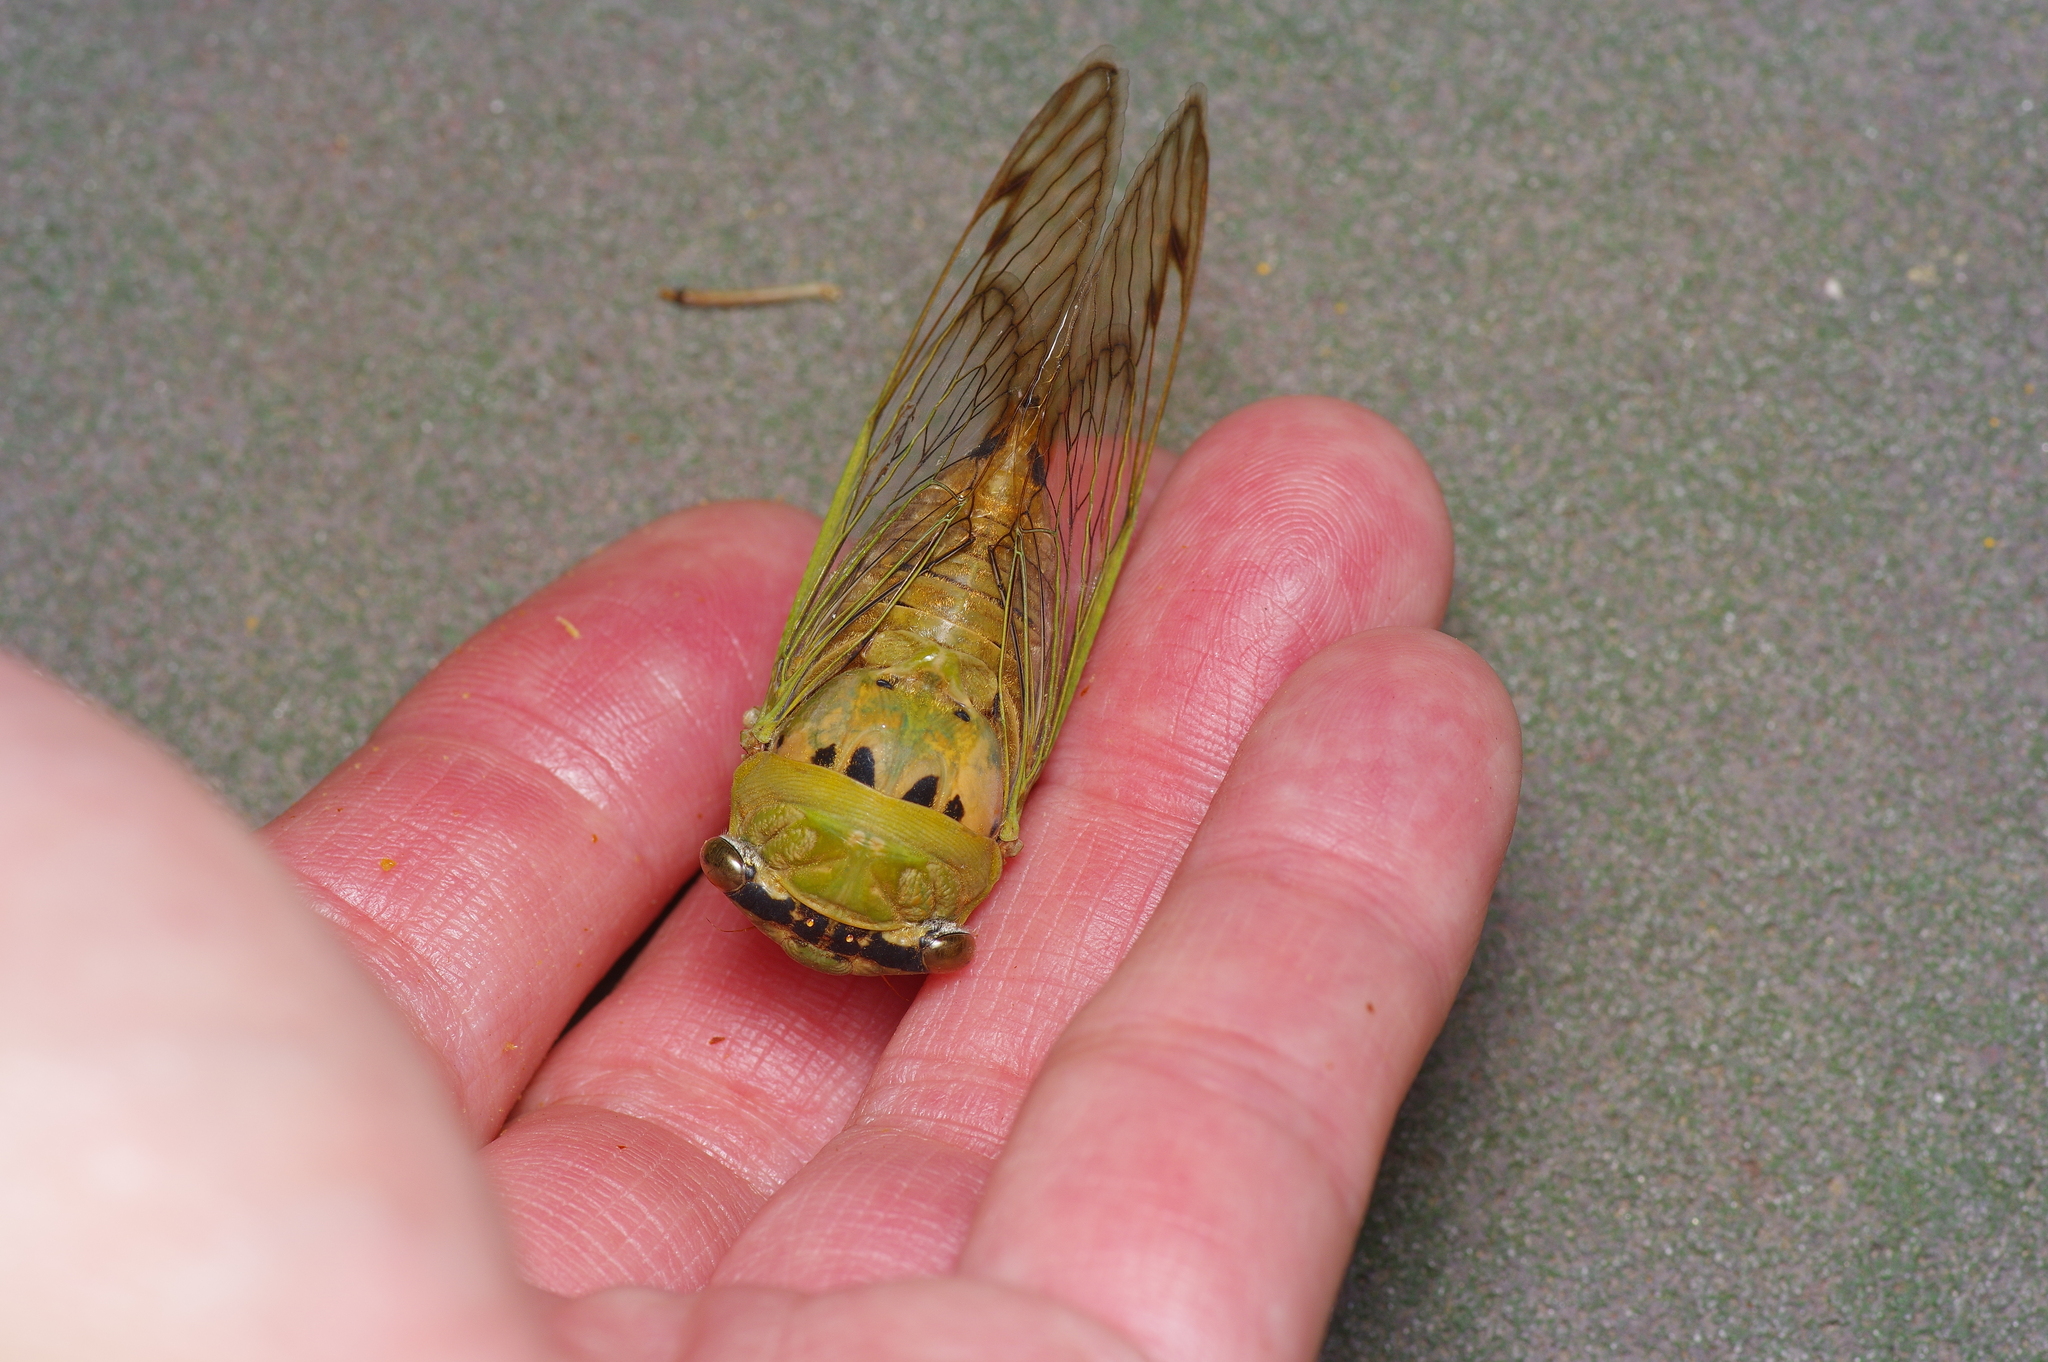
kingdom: Animalia
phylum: Arthropoda
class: Insecta
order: Hemiptera
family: Cicadidae
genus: Neotibicen
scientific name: Neotibicen superbus
